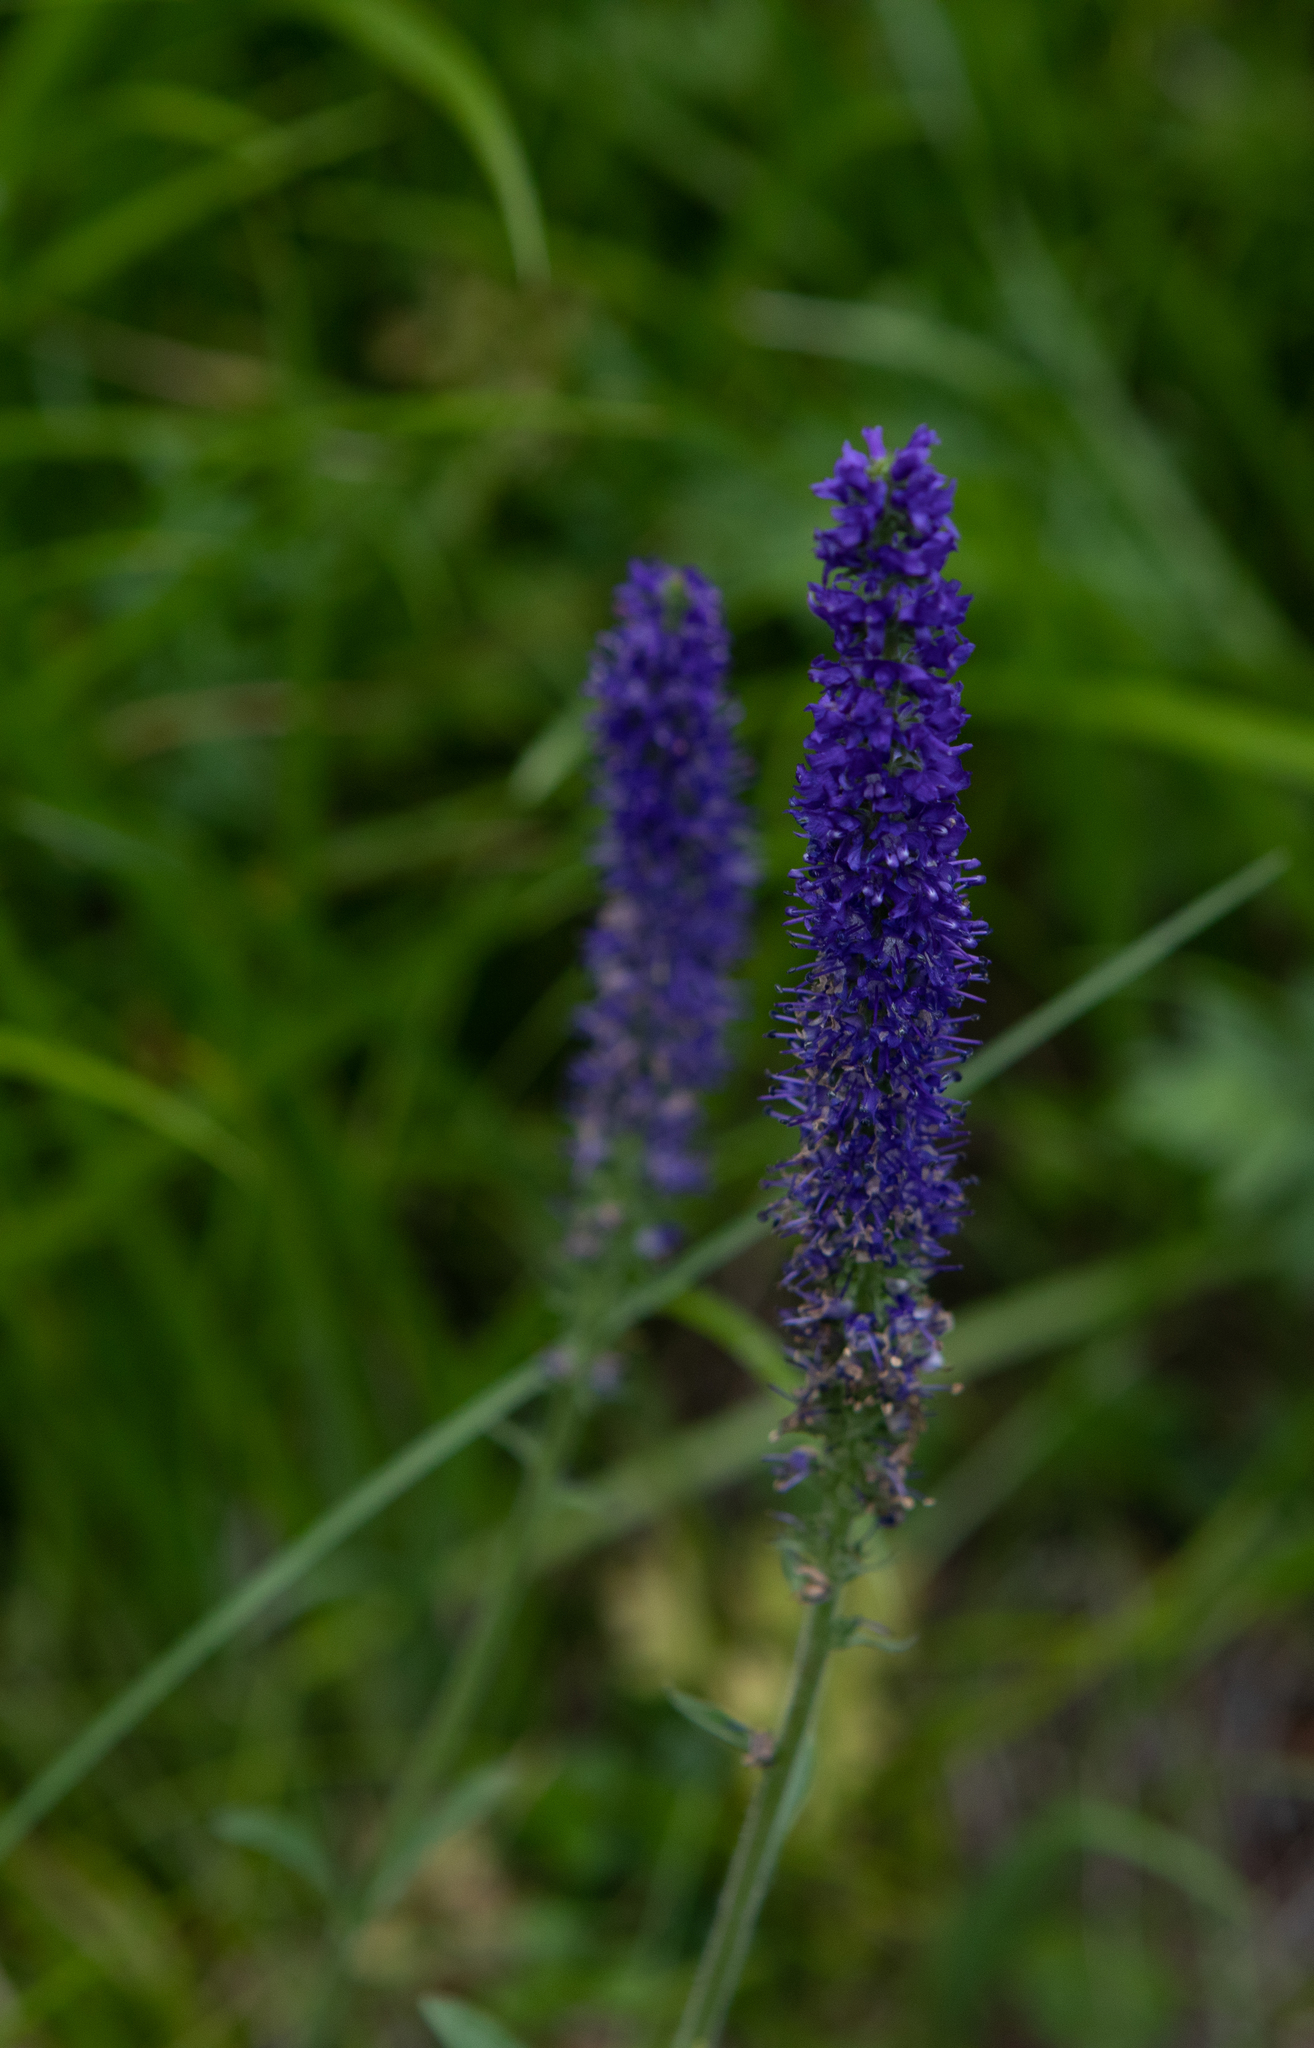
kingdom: Plantae
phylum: Tracheophyta
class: Magnoliopsida
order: Lamiales
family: Plantaginaceae
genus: Veronica
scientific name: Veronica porphyriana
